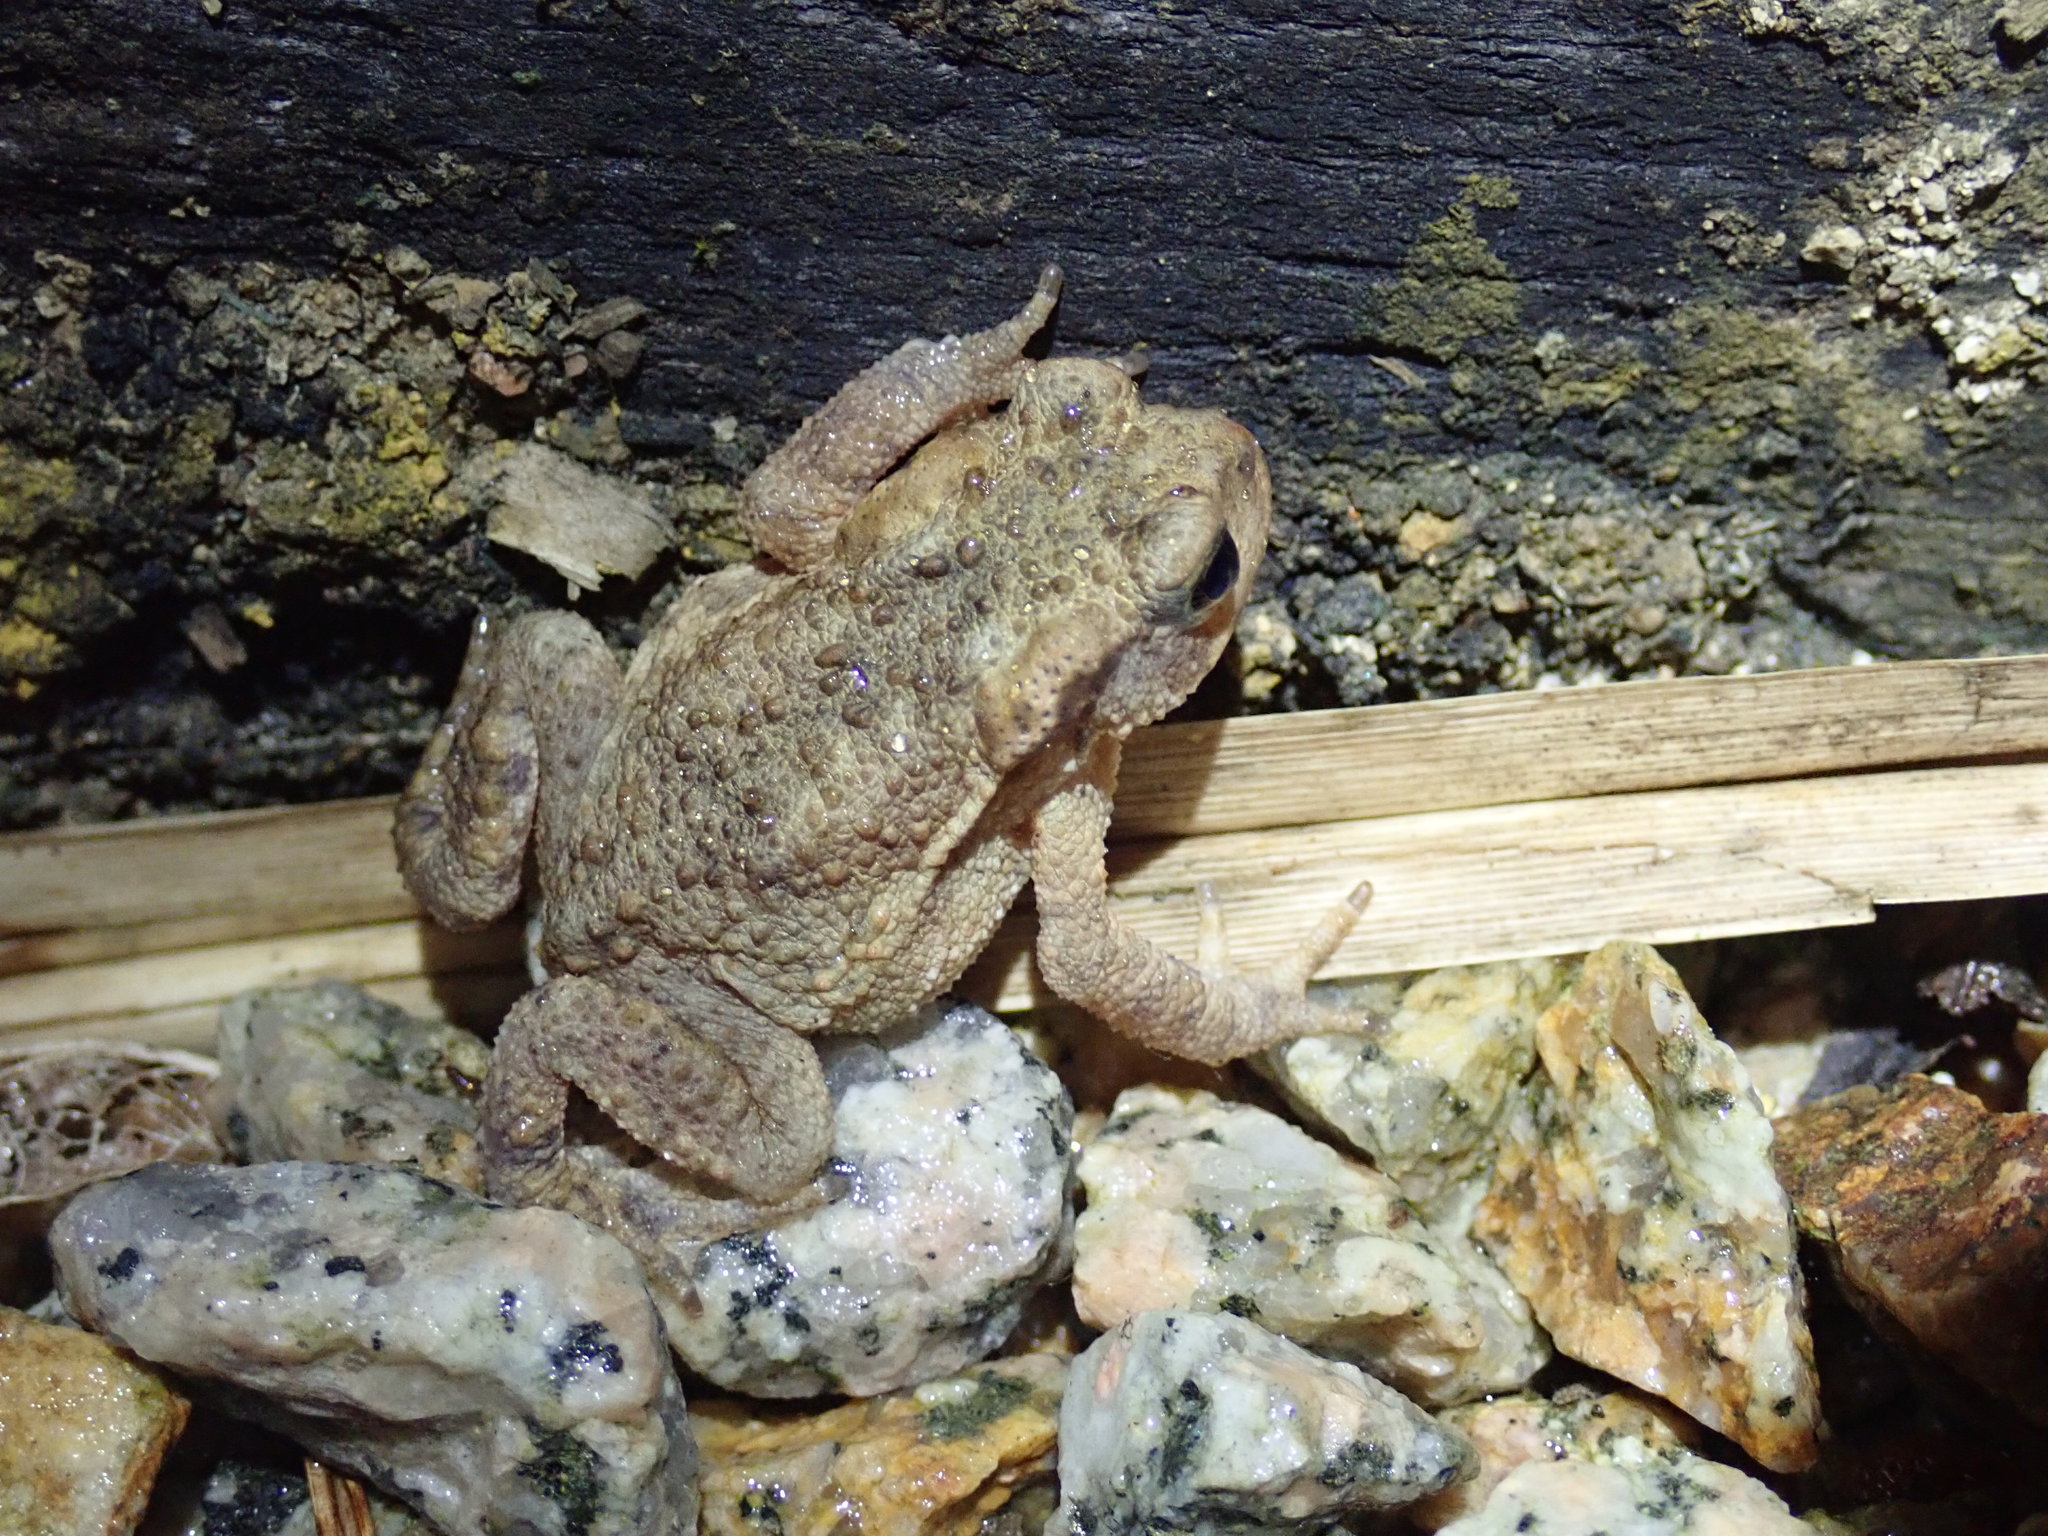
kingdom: Animalia
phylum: Chordata
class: Amphibia
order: Anura
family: Bufonidae
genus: Bufo
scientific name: Bufo spinosus
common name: Western common toad
